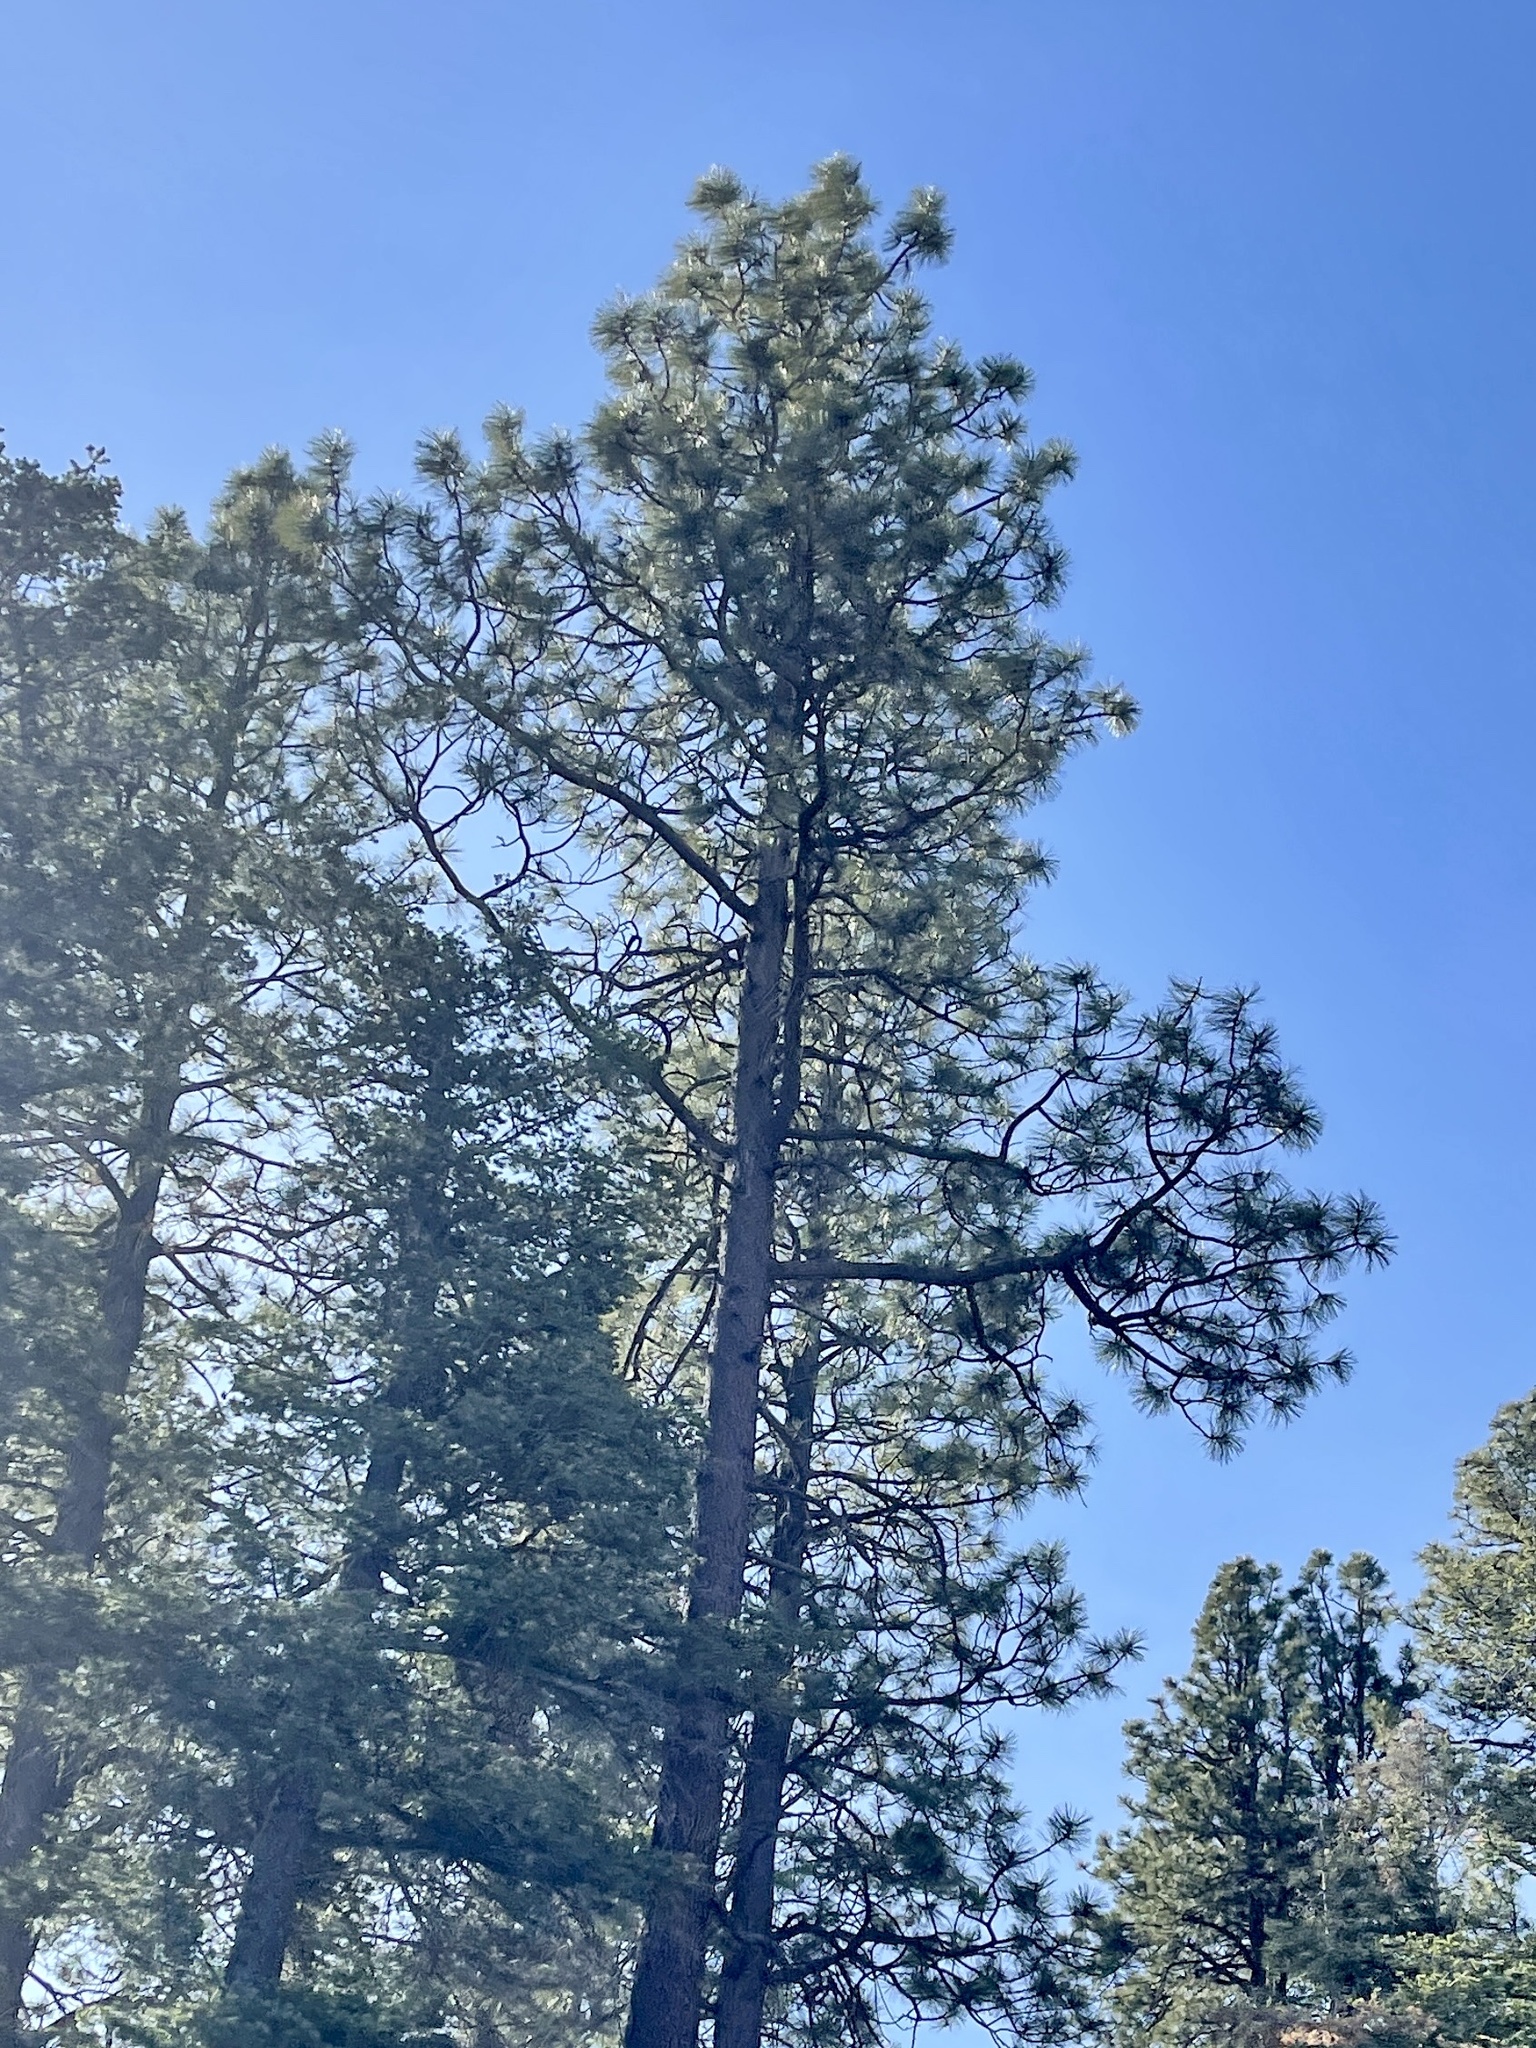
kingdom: Plantae
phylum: Tracheophyta
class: Pinopsida
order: Pinales
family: Pinaceae
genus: Pinus
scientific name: Pinus ponderosa
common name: Western yellow-pine
